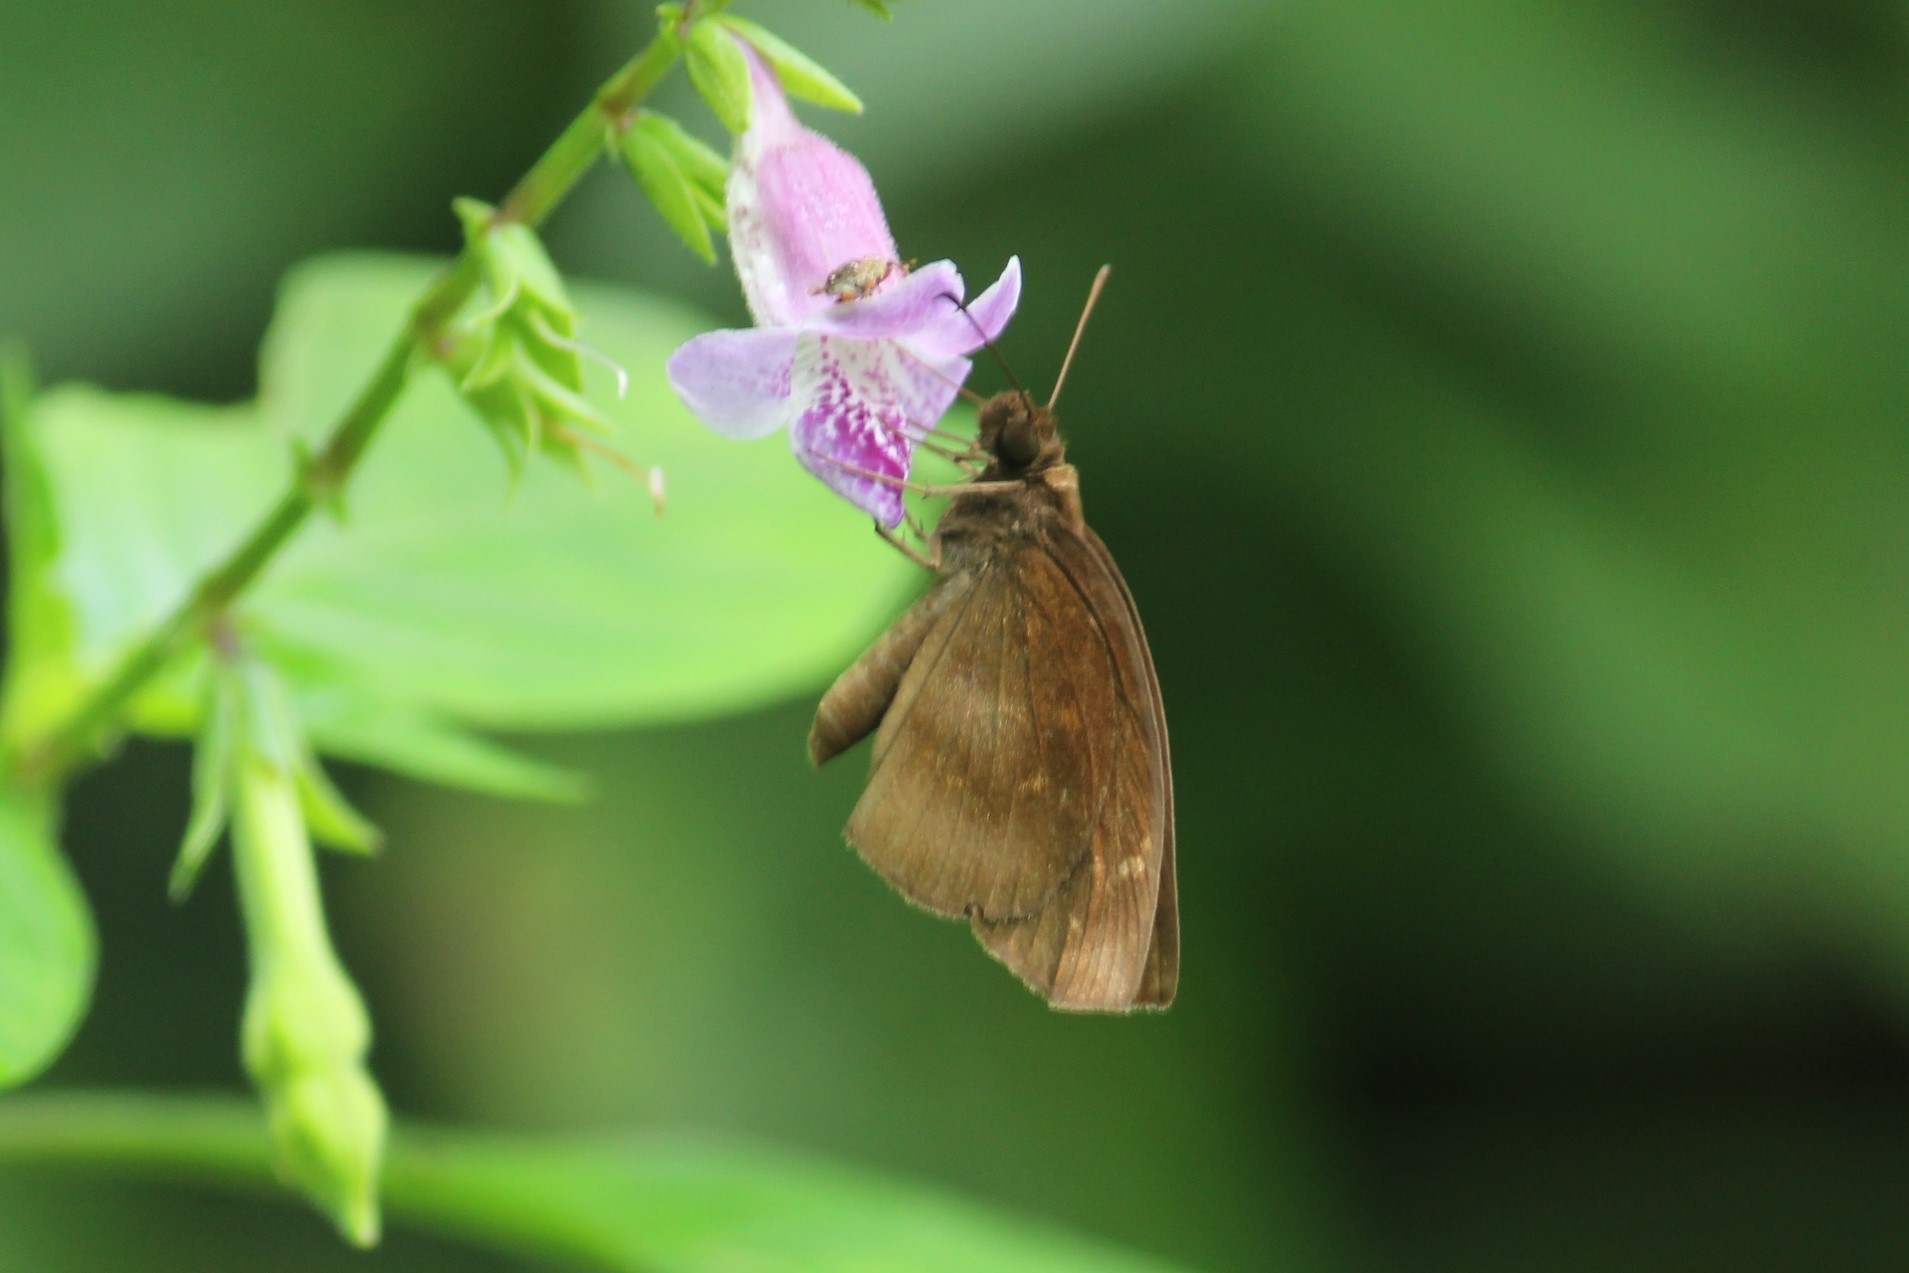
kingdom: Animalia
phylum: Arthropoda
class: Insecta
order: Lepidoptera
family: Hesperiidae
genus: Psolos
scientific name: Psolos fuligo
